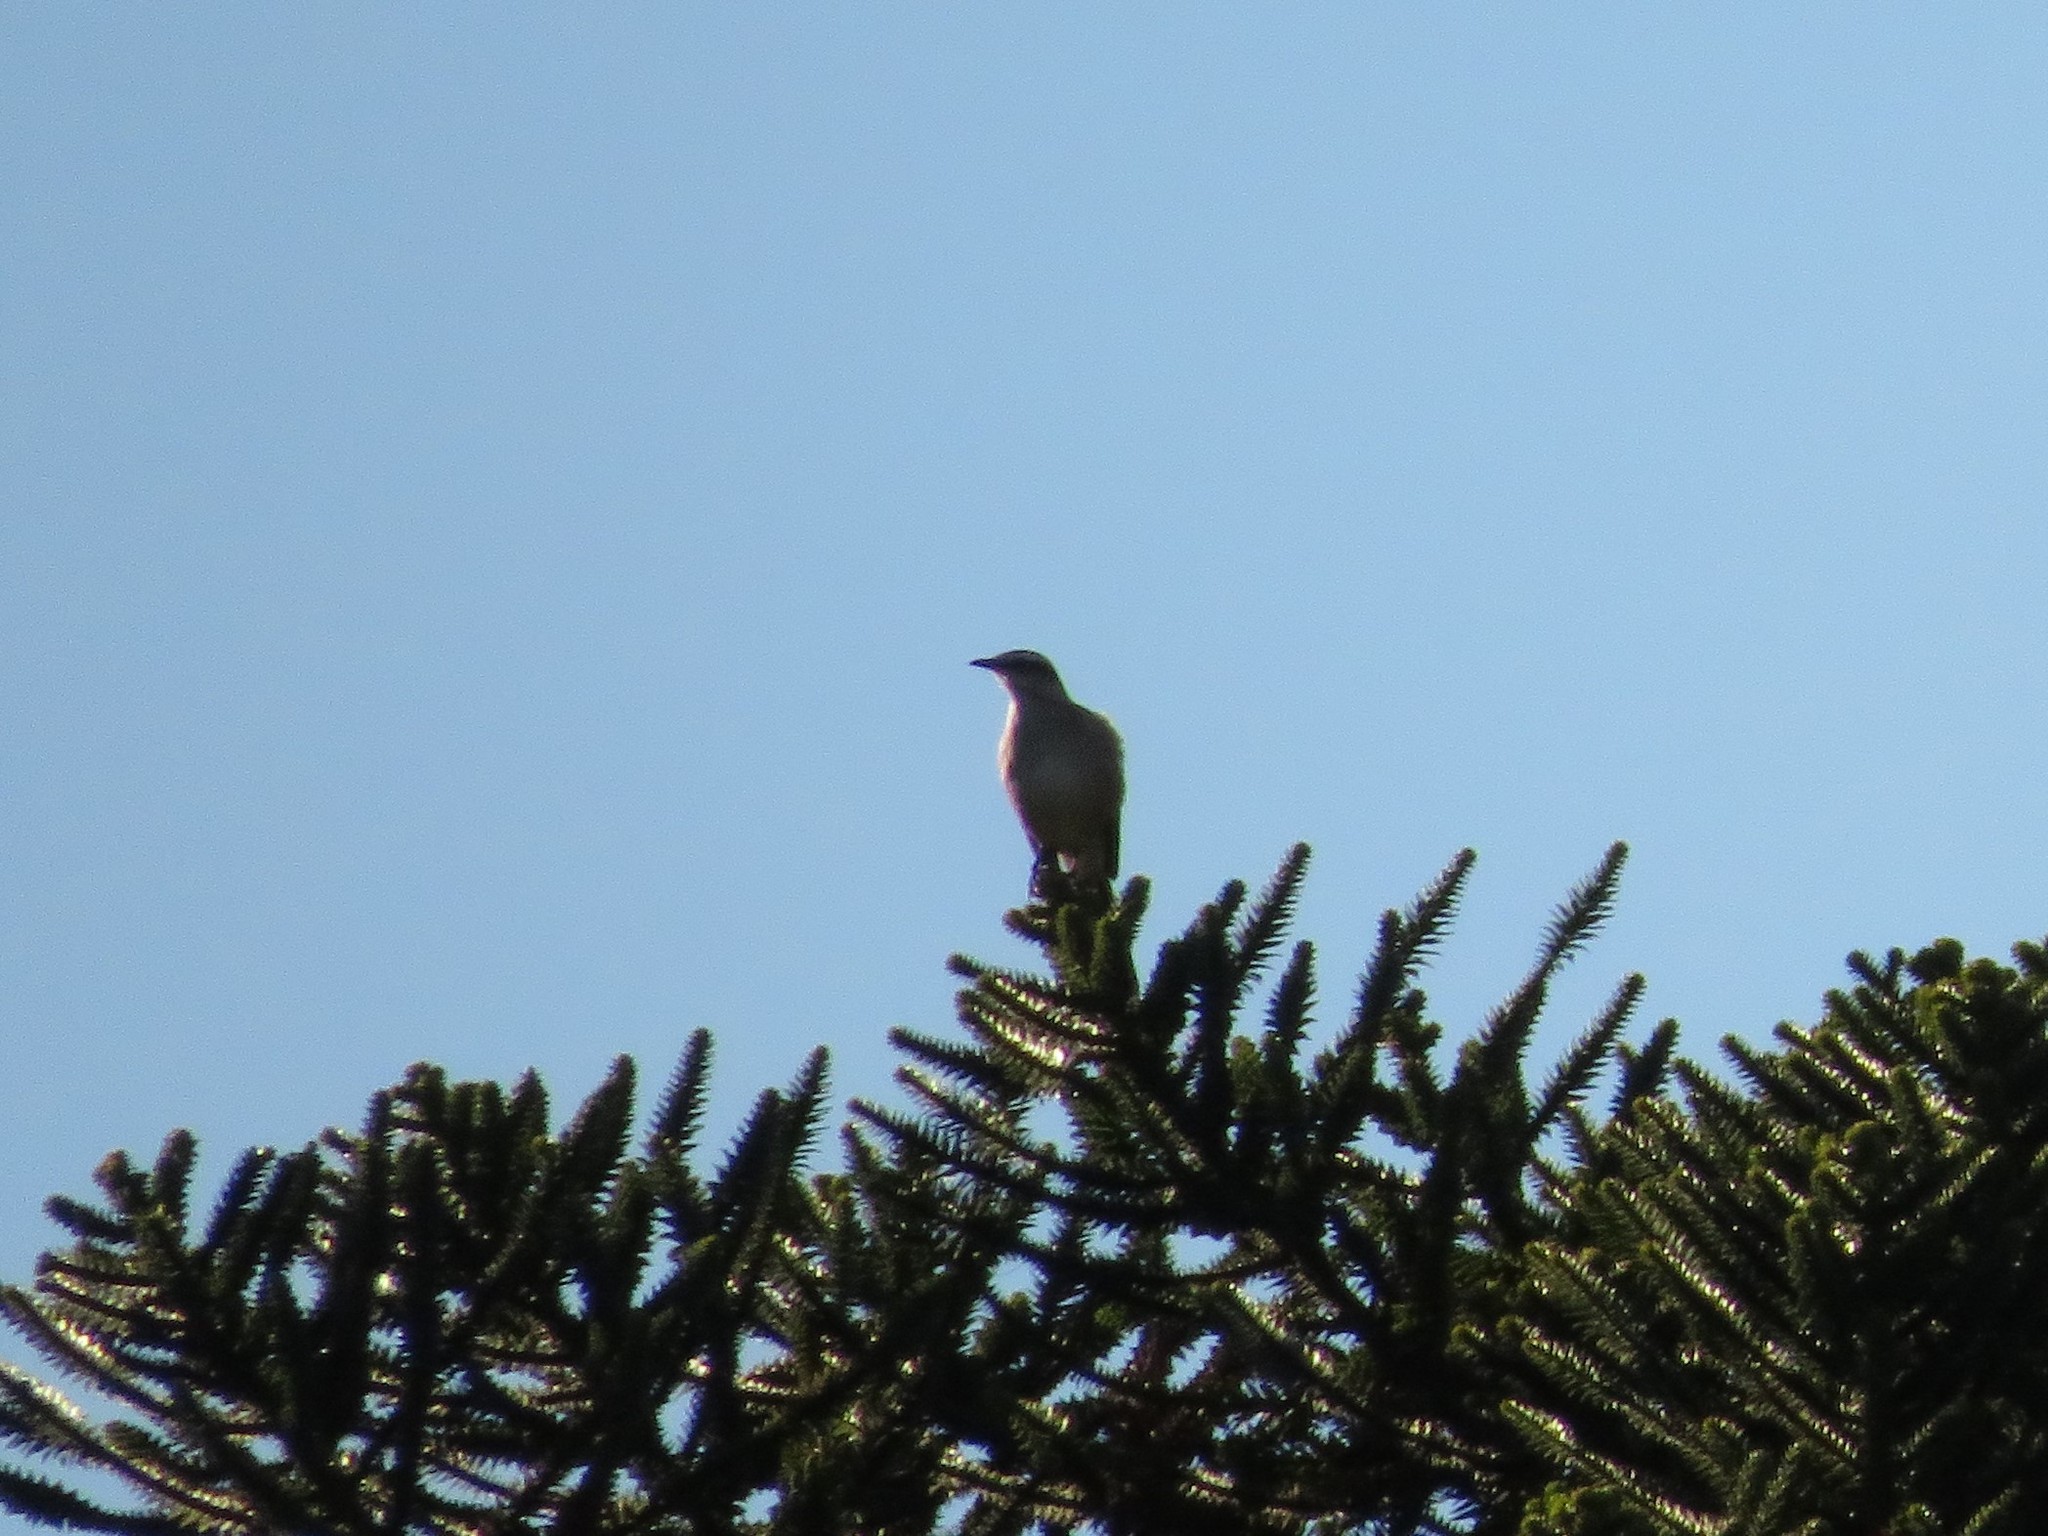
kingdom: Animalia
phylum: Chordata
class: Aves
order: Passeriformes
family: Mimidae
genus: Mimus
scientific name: Mimus saturninus
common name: Chalk-browed mockingbird
